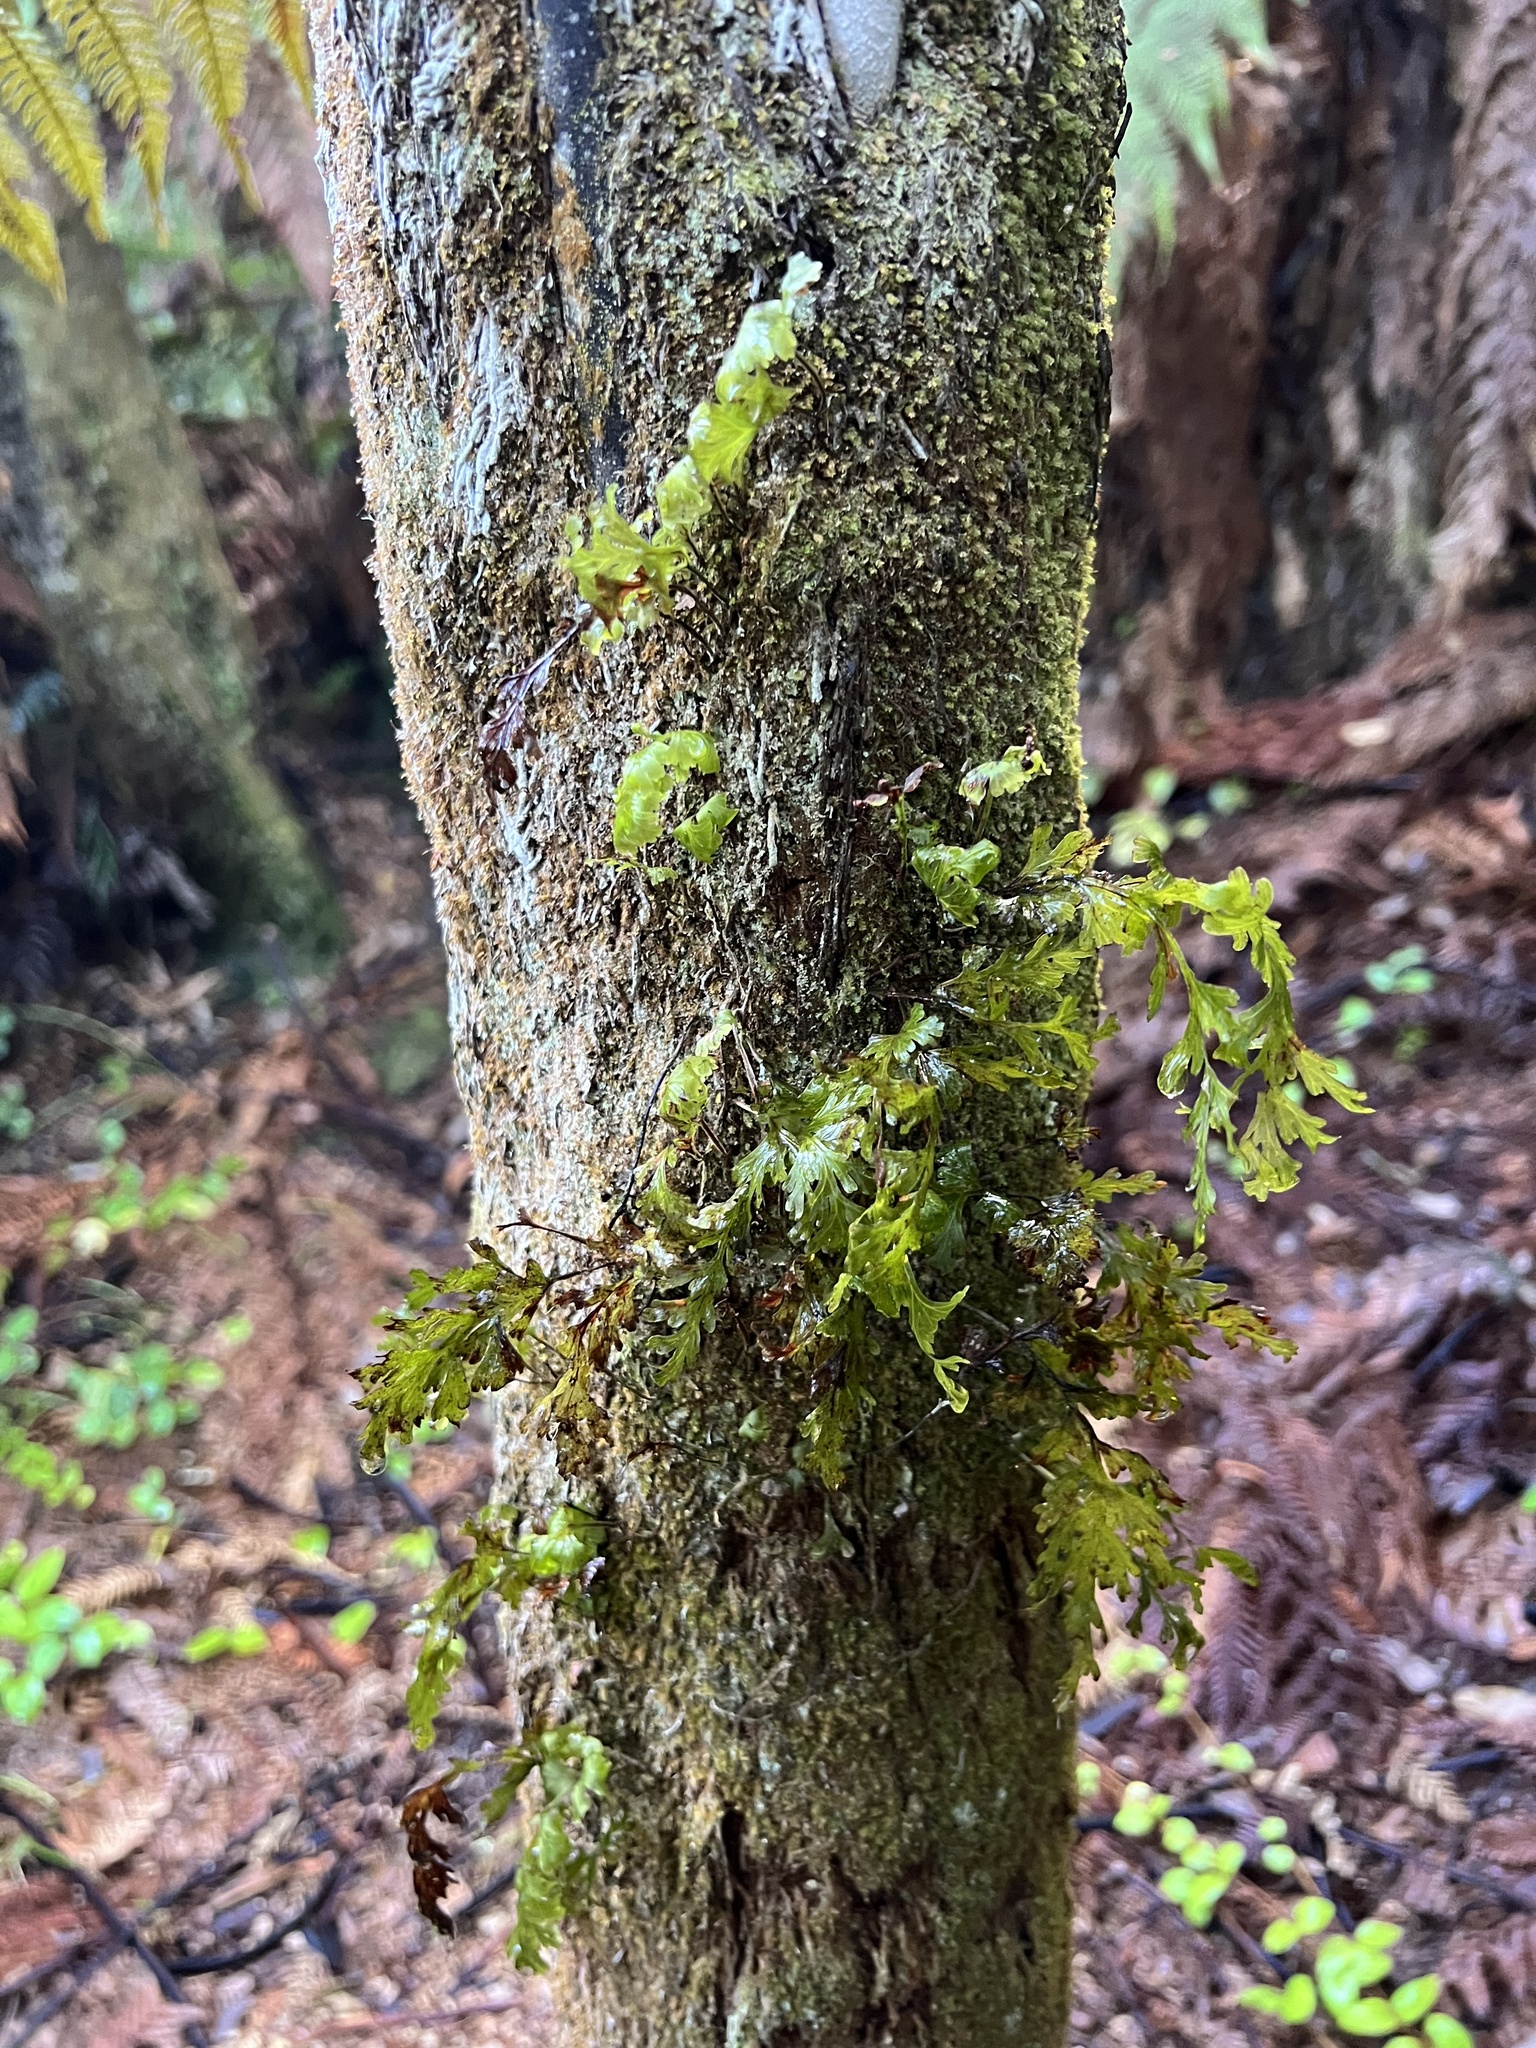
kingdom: Plantae
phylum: Tracheophyta
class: Polypodiopsida
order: Hymenophyllales
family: Hymenophyllaceae
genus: Hymenophyllum
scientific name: Hymenophyllum dilatatum
